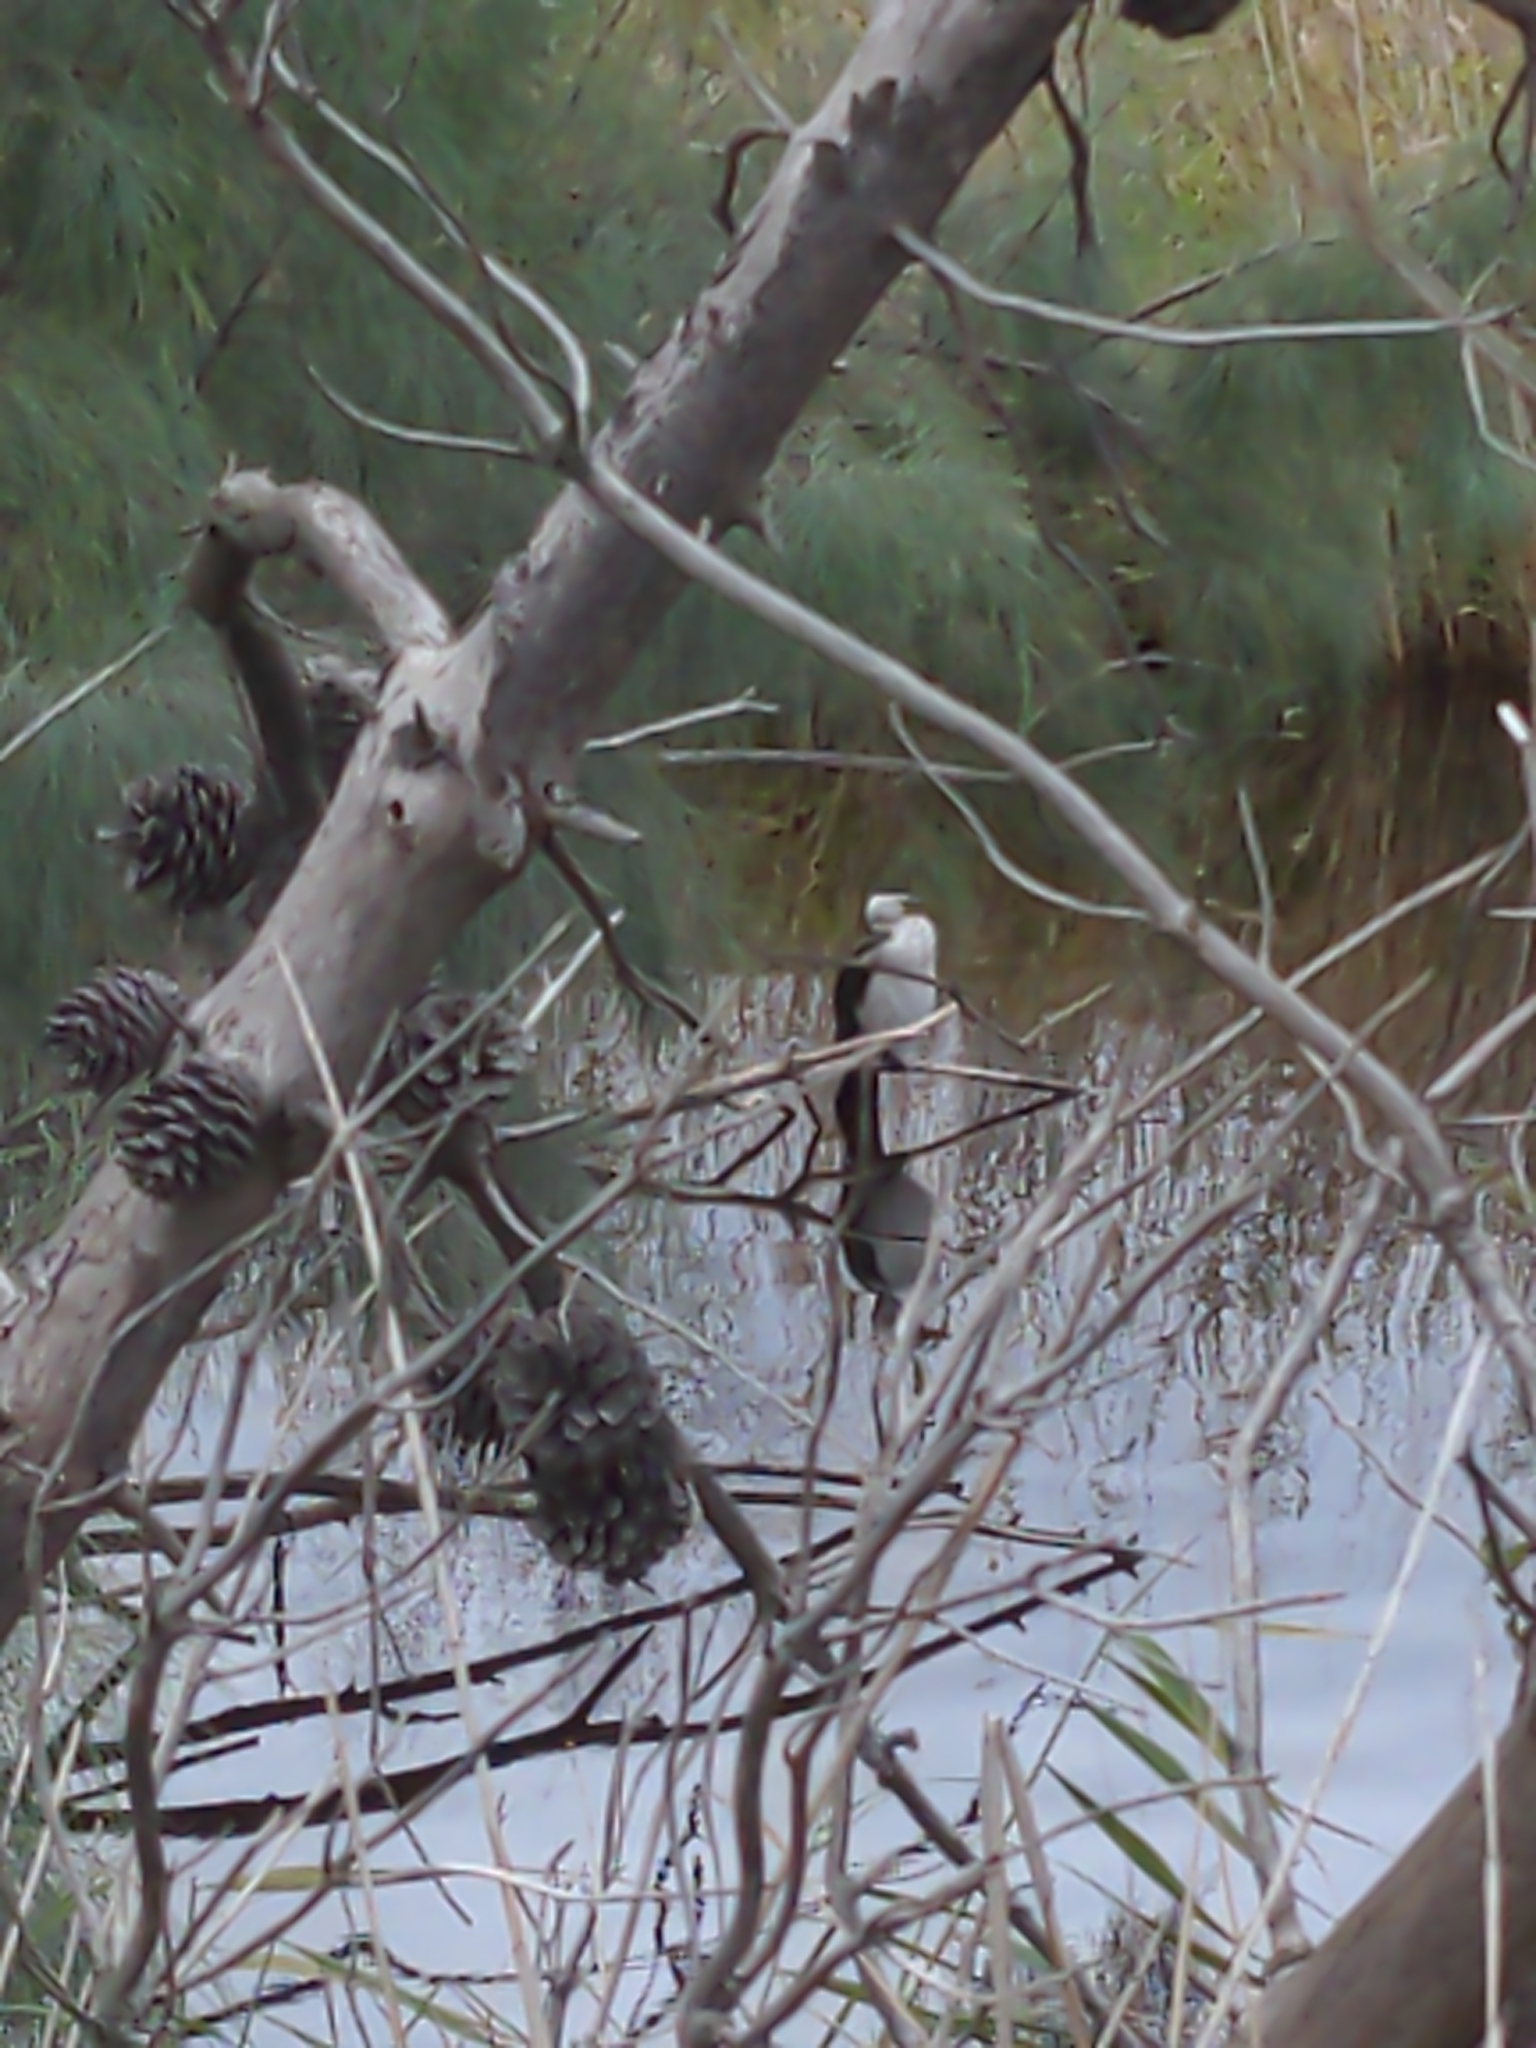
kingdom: Animalia
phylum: Chordata
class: Aves
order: Suliformes
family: Phalacrocoracidae
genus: Microcarbo
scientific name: Microcarbo melanoleucos
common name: Little pied cormorant
